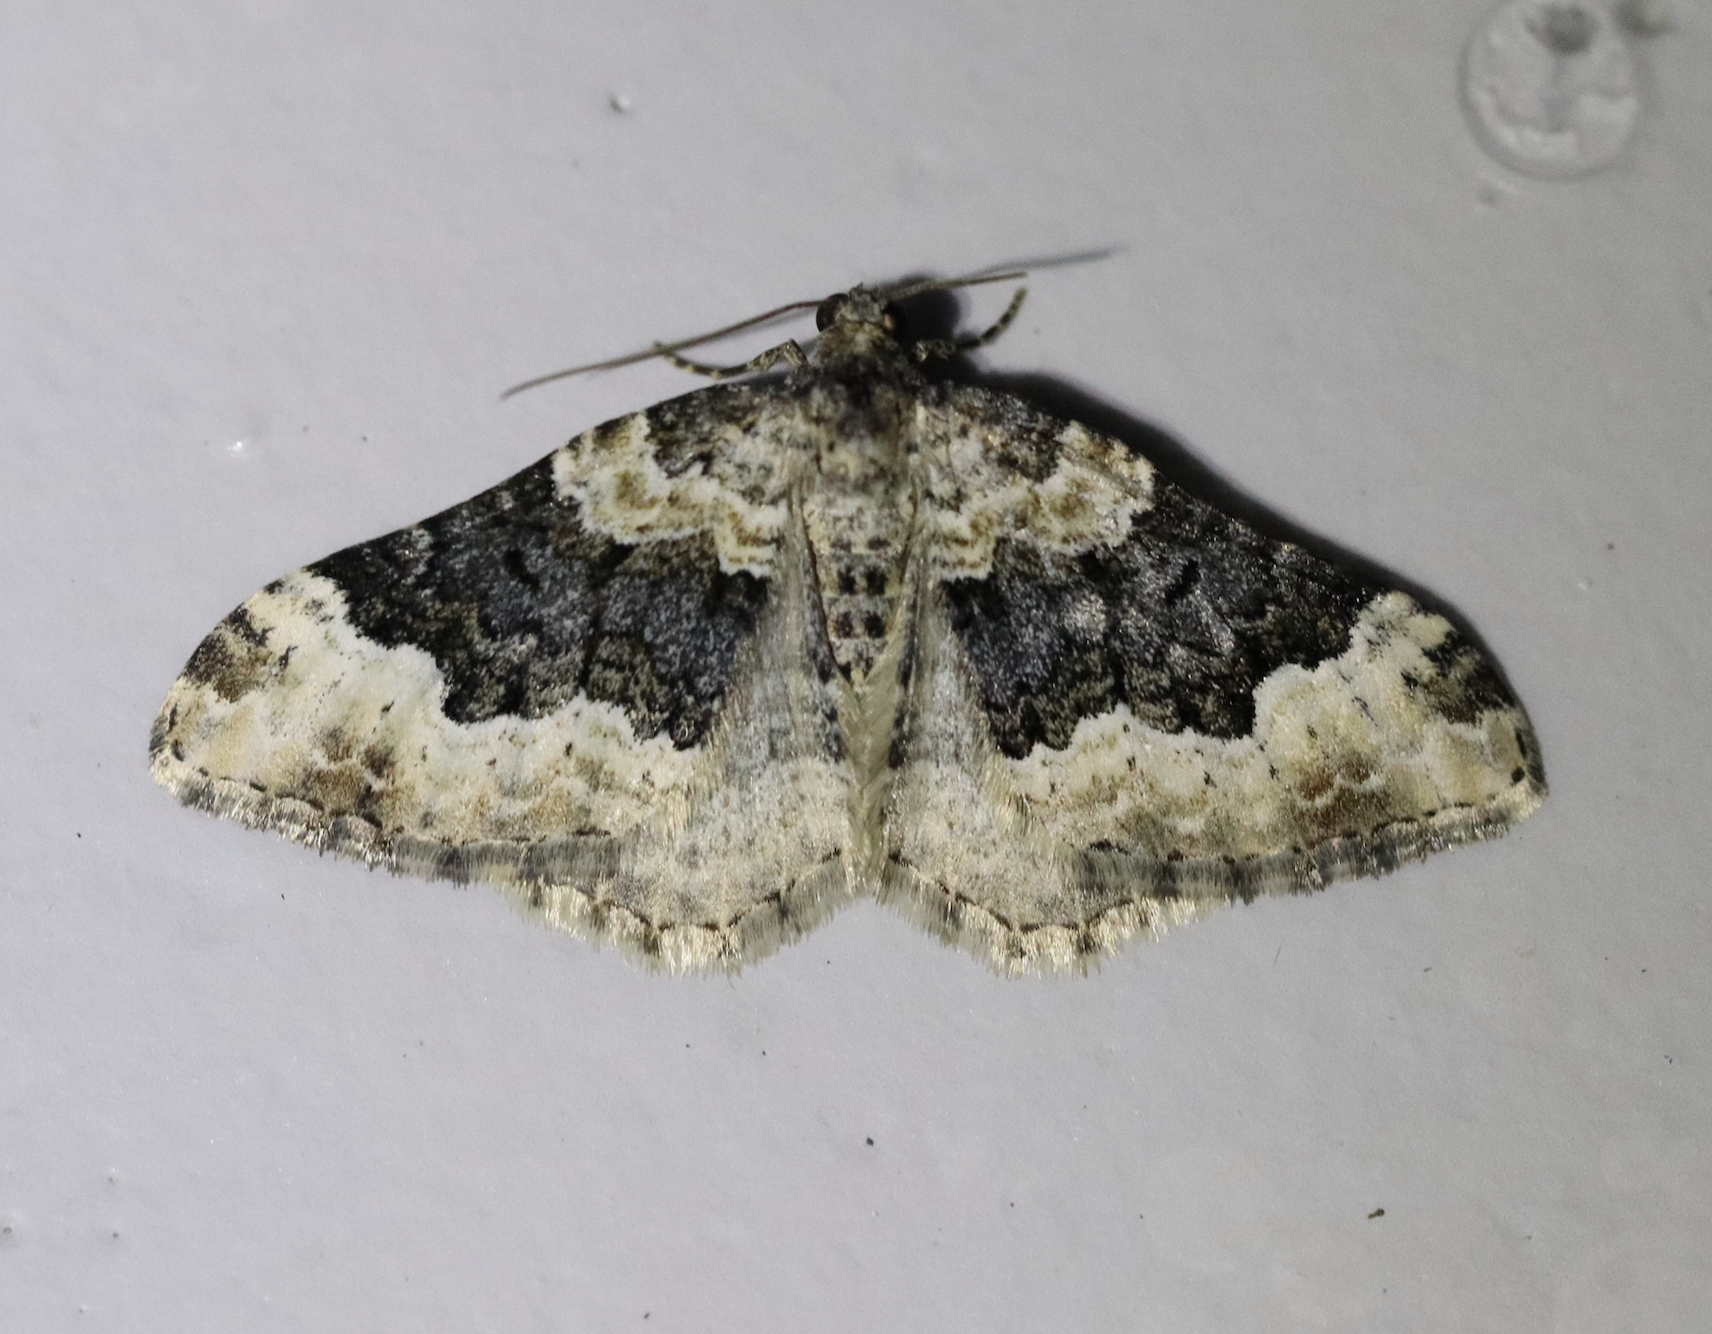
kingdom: Animalia
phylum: Arthropoda
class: Insecta
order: Lepidoptera
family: Geometridae
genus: Epirrhoe
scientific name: Epirrhoe galiata
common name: Galium carpet
